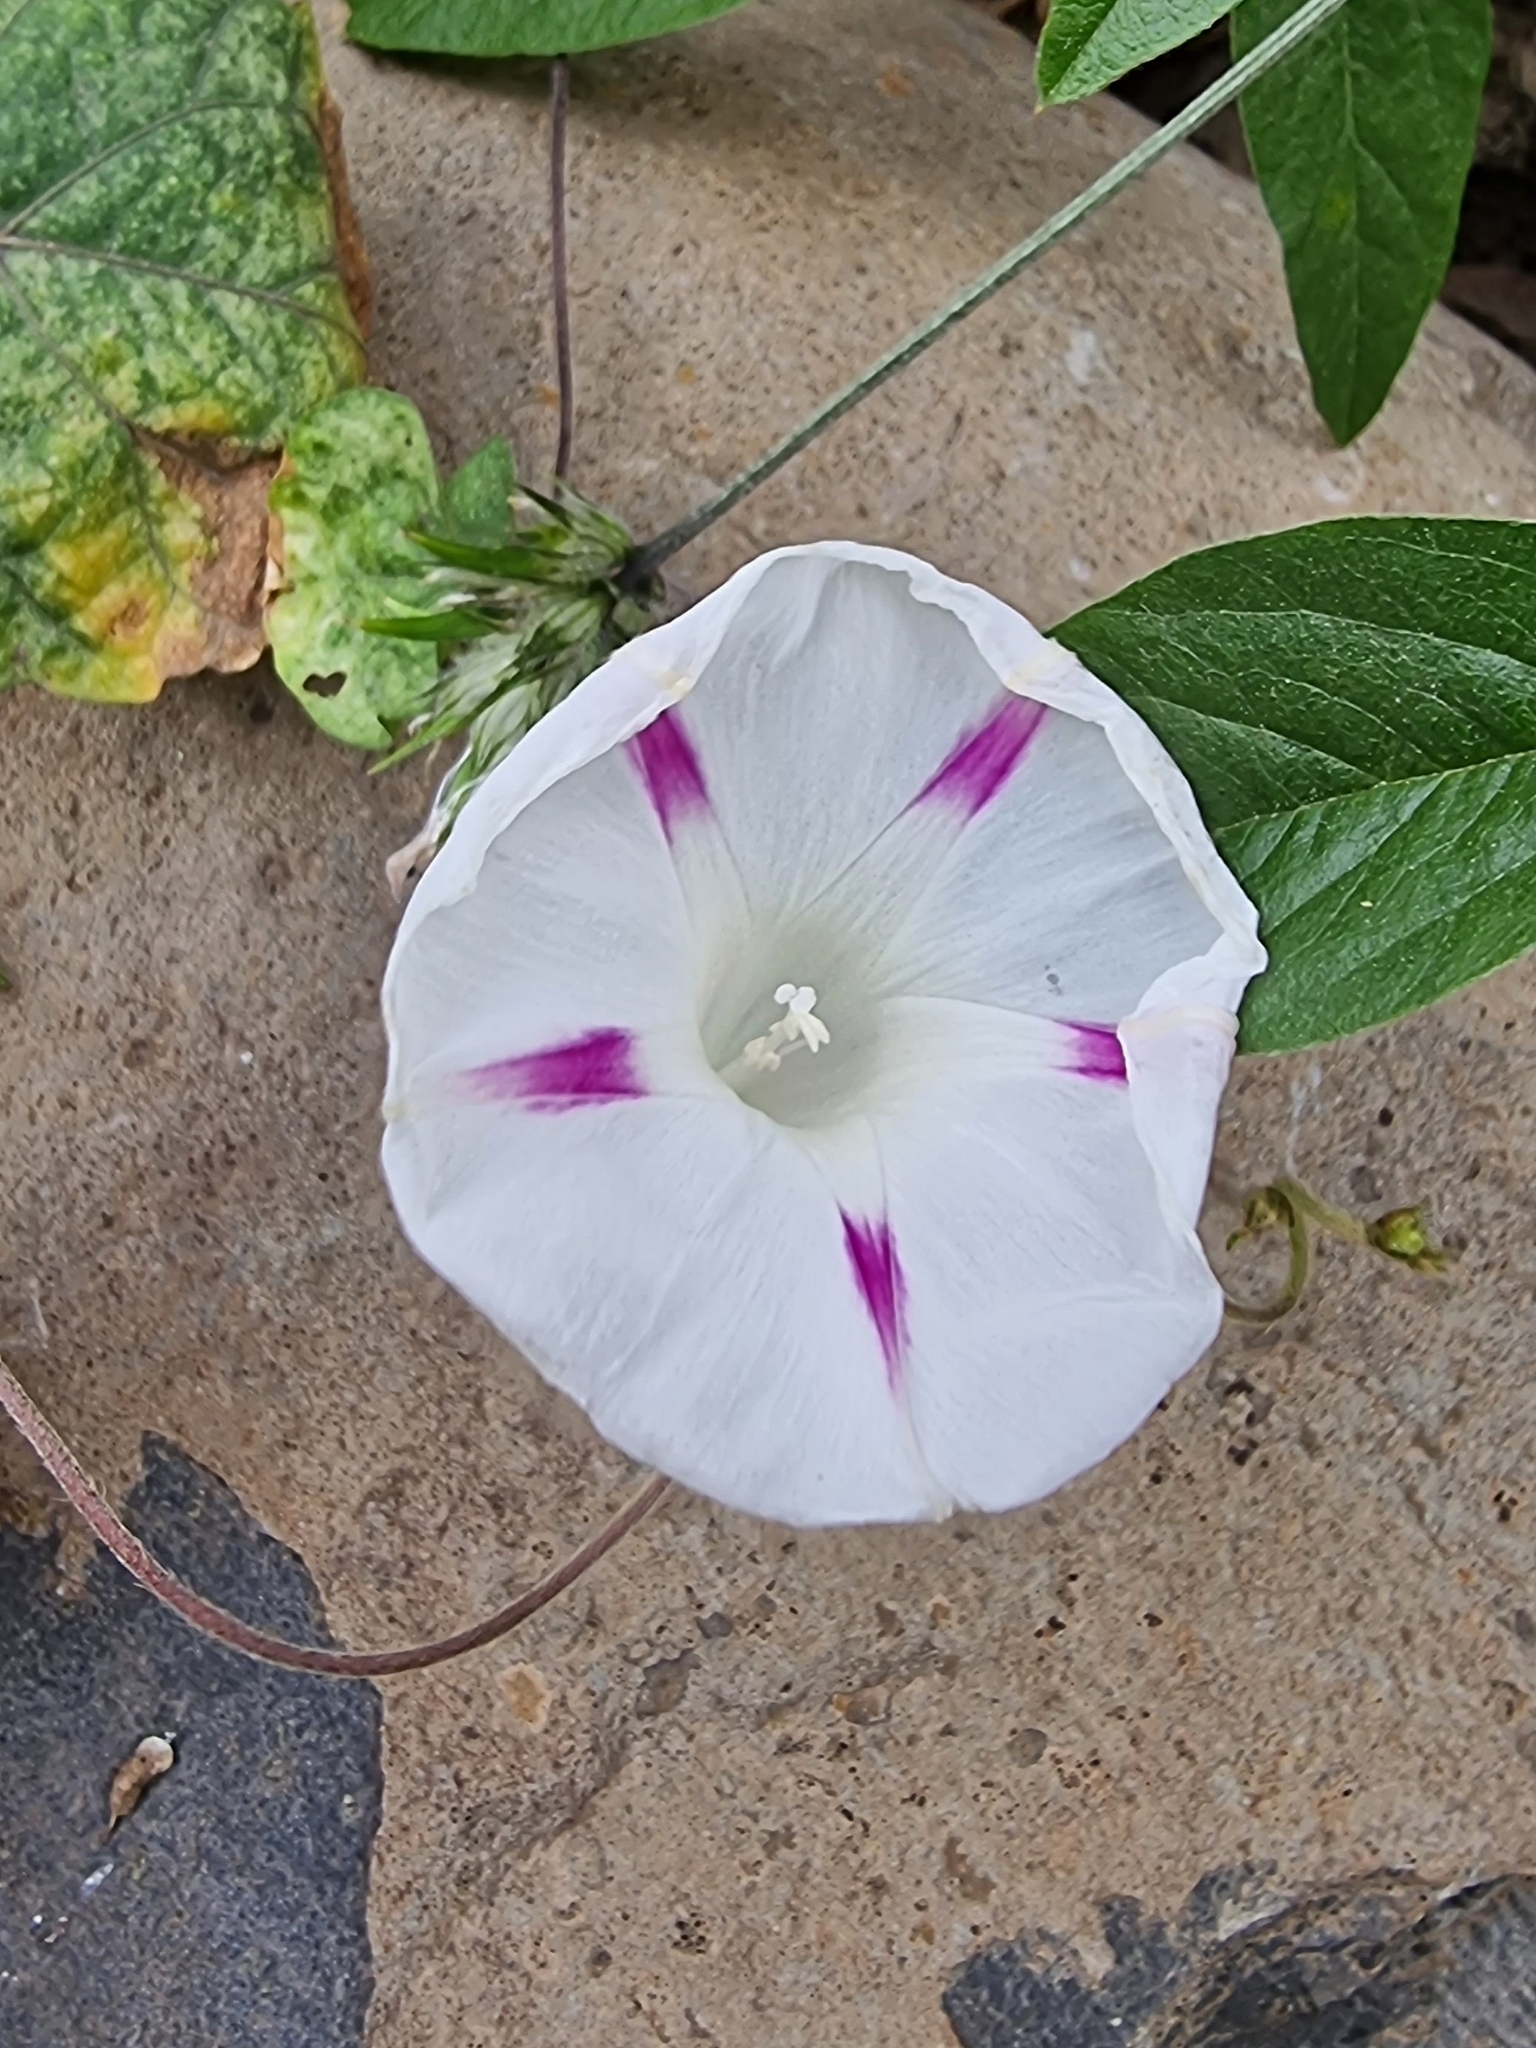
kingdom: Plantae
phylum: Tracheophyta
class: Magnoliopsida
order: Solanales
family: Convolvulaceae
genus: Ipomoea
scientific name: Ipomoea purpurea
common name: Common morning-glory
